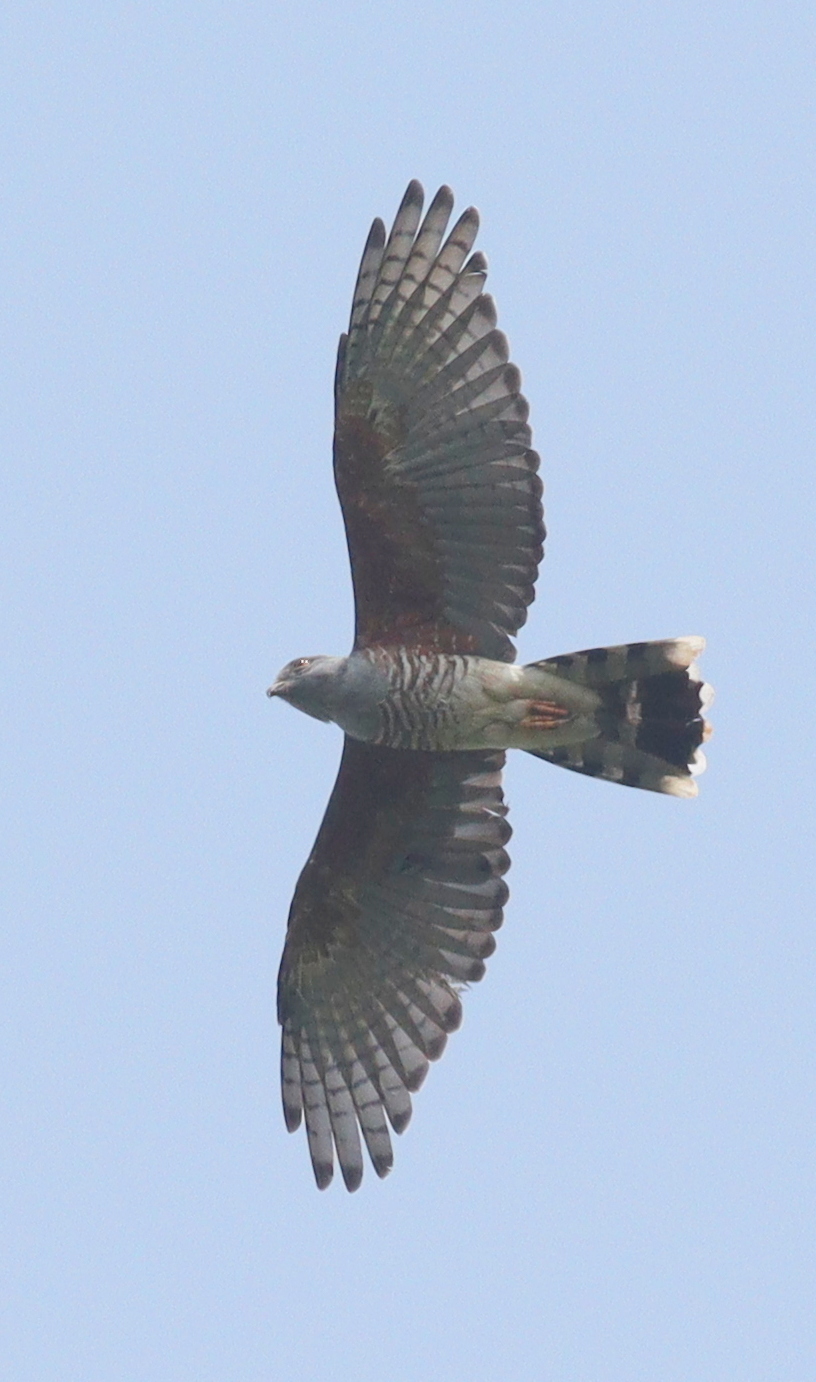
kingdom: Animalia
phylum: Chordata
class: Aves
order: Accipitriformes
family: Accipitridae
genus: Aviceda
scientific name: Aviceda cuculoides
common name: African cuckoo-hawk
